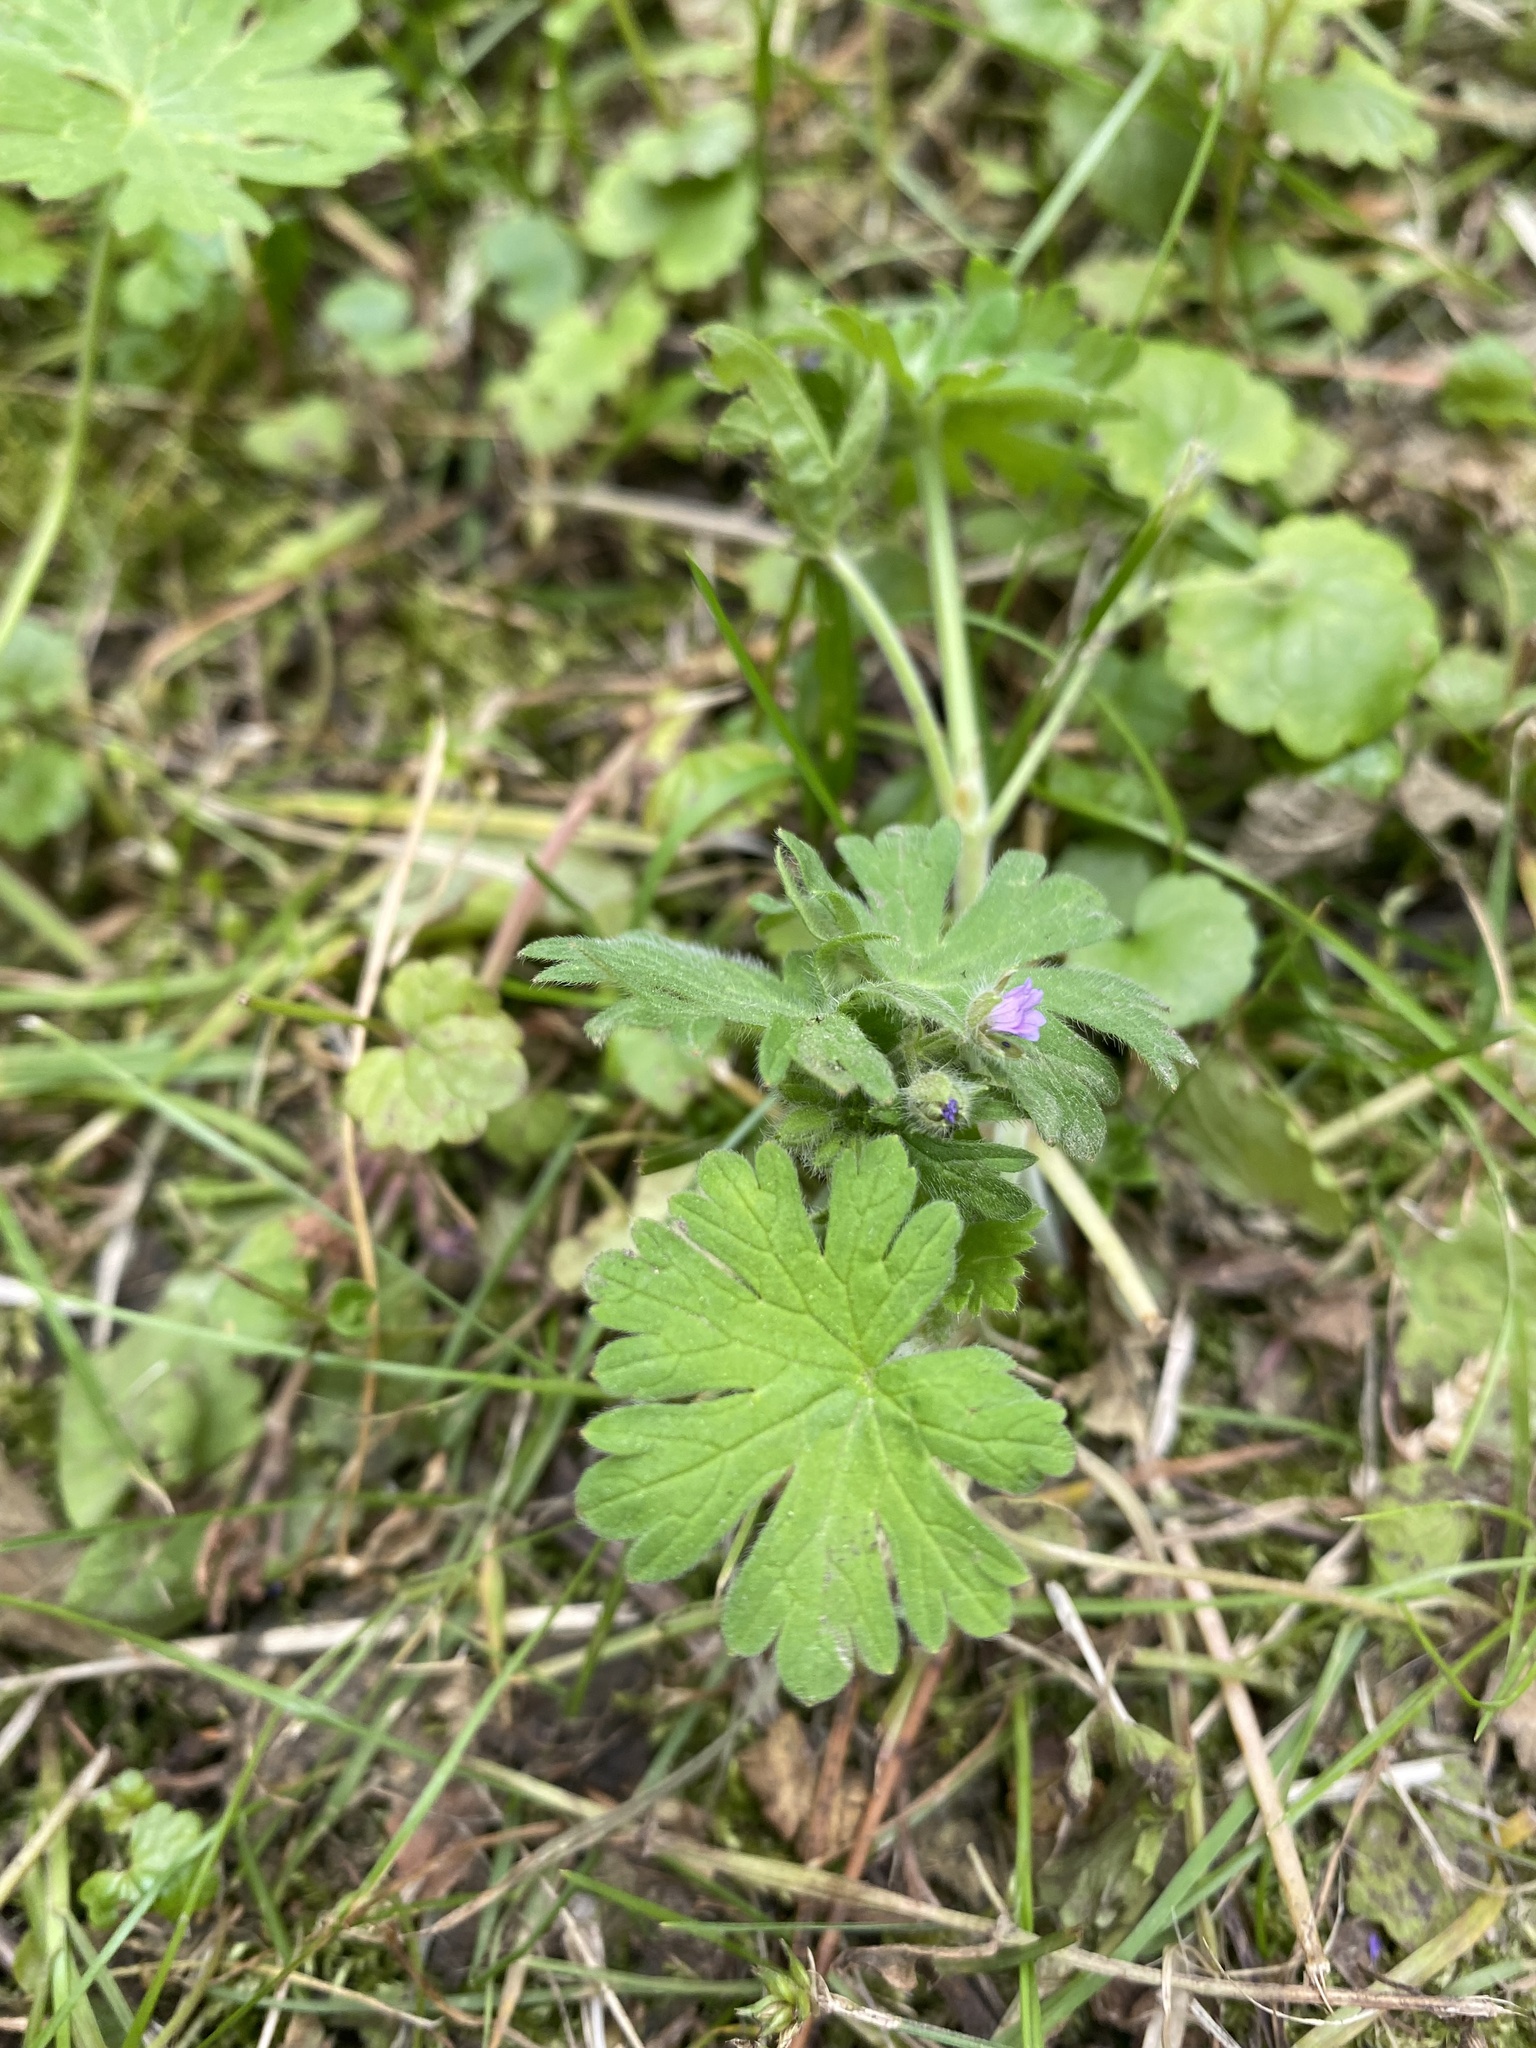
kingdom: Plantae
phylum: Tracheophyta
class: Magnoliopsida
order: Geraniales
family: Geraniaceae
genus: Geranium
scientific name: Geranium pusillum
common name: Small geranium
